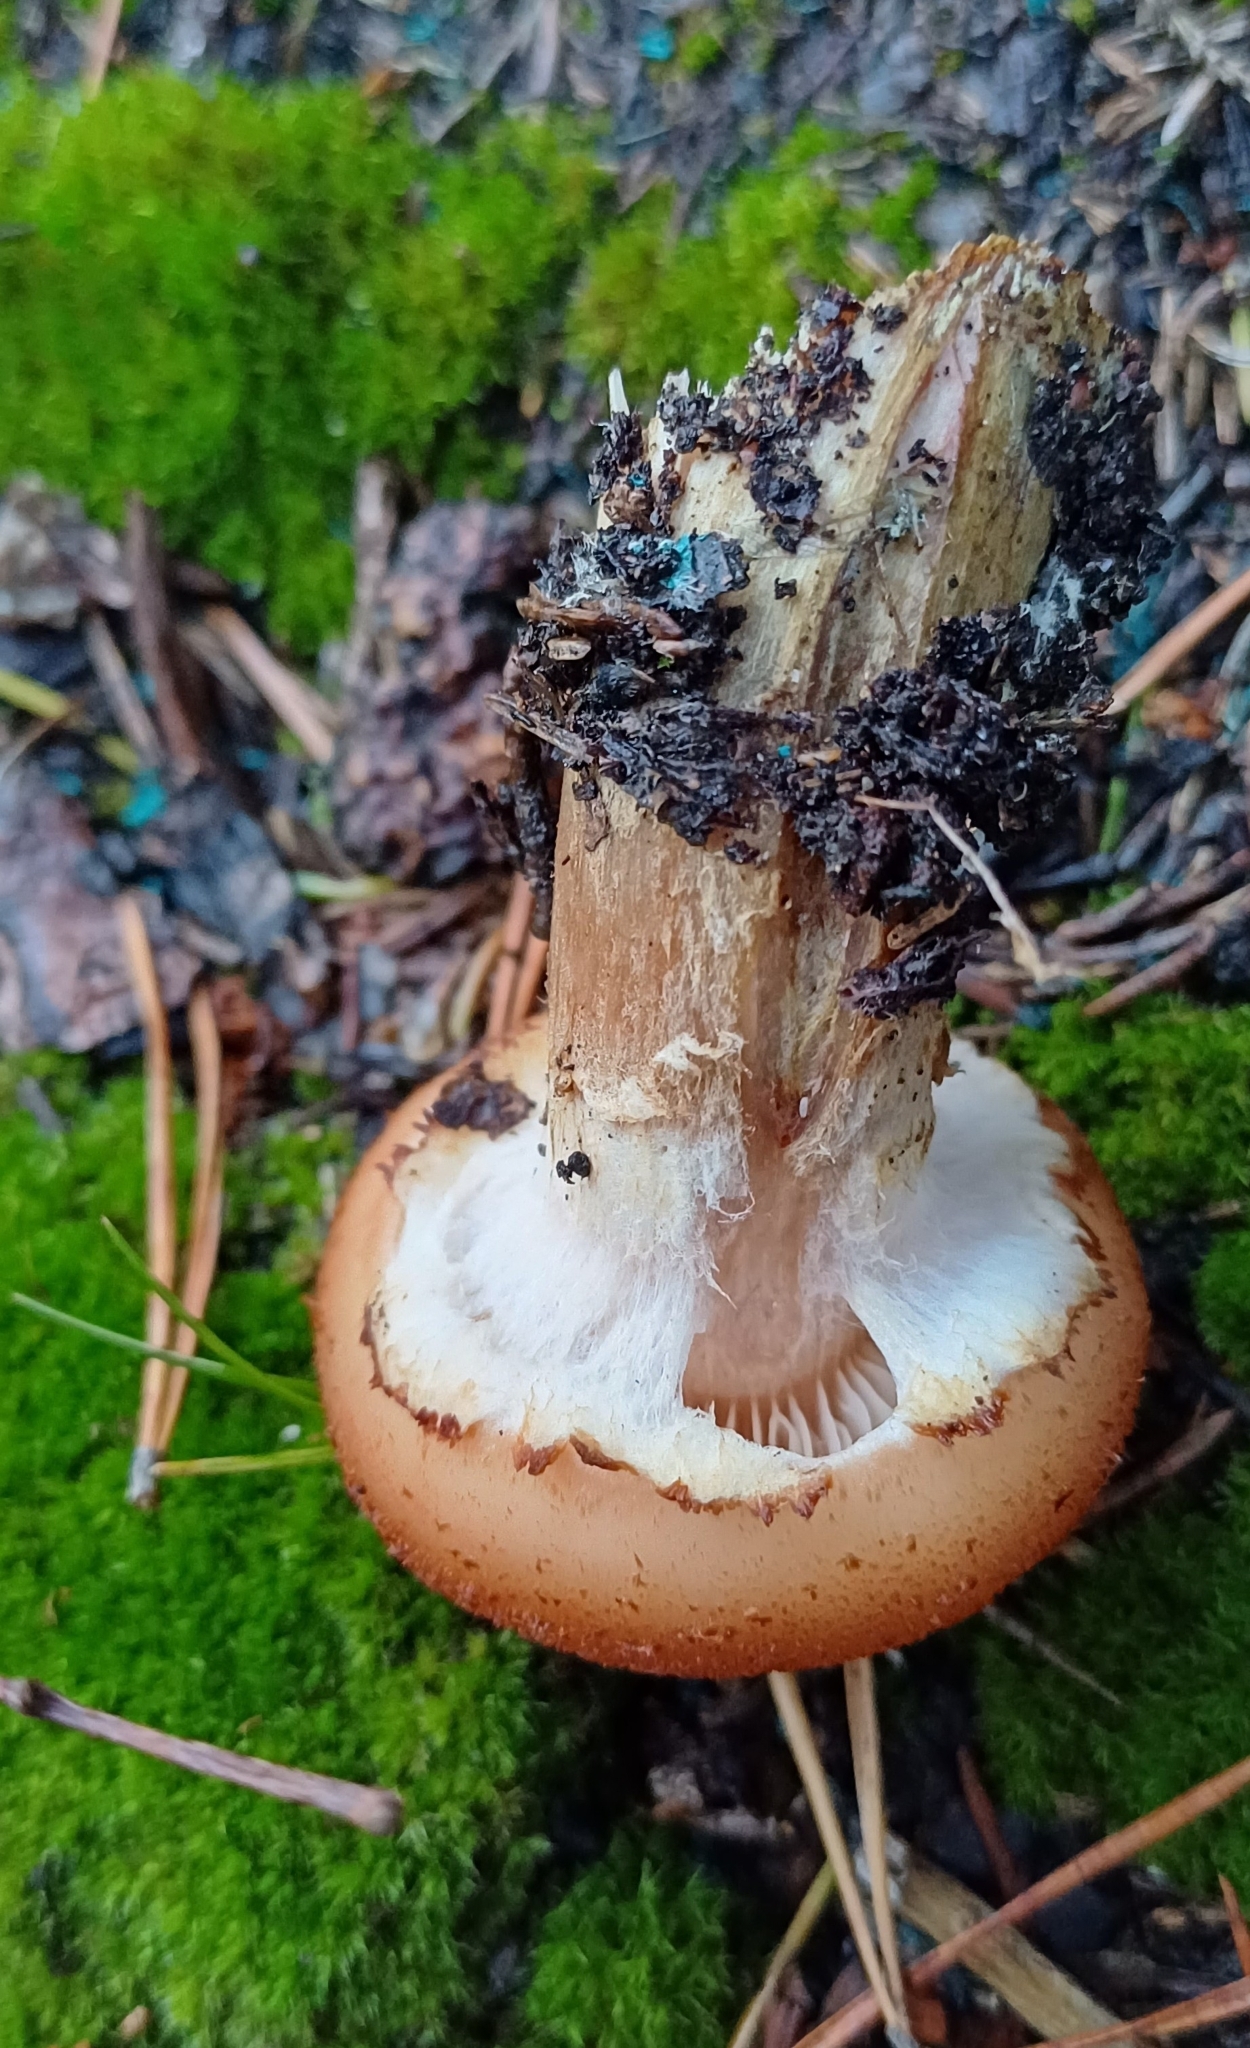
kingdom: Fungi
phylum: Basidiomycota
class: Agaricomycetes
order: Agaricales
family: Physalacriaceae
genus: Armillaria
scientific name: Armillaria borealis
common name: Northern honey fungus
